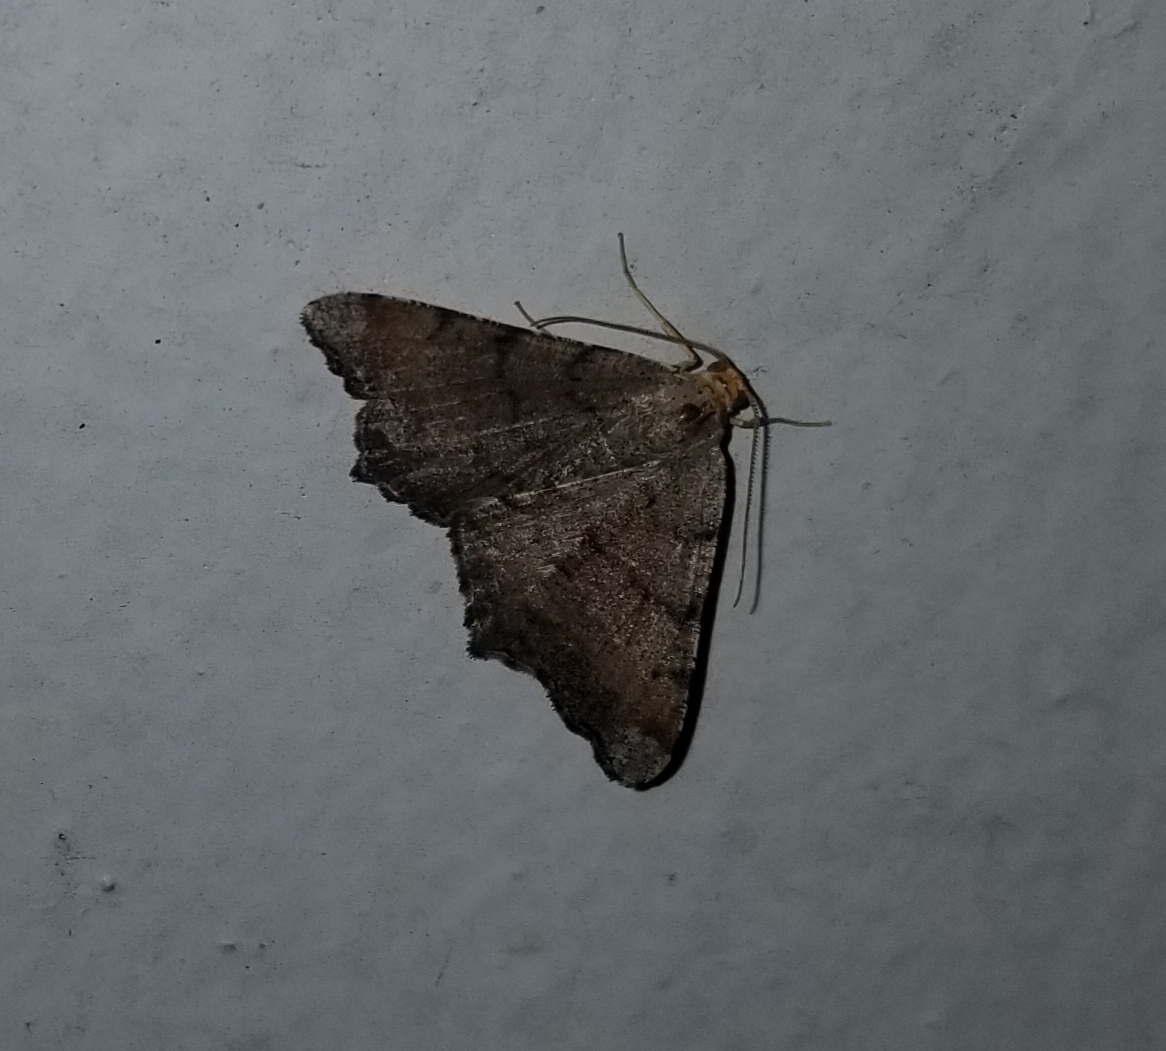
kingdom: Animalia
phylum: Arthropoda
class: Insecta
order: Lepidoptera
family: Geometridae
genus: Macaria
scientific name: Macaria transitaria
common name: Blurry chocolate angle
